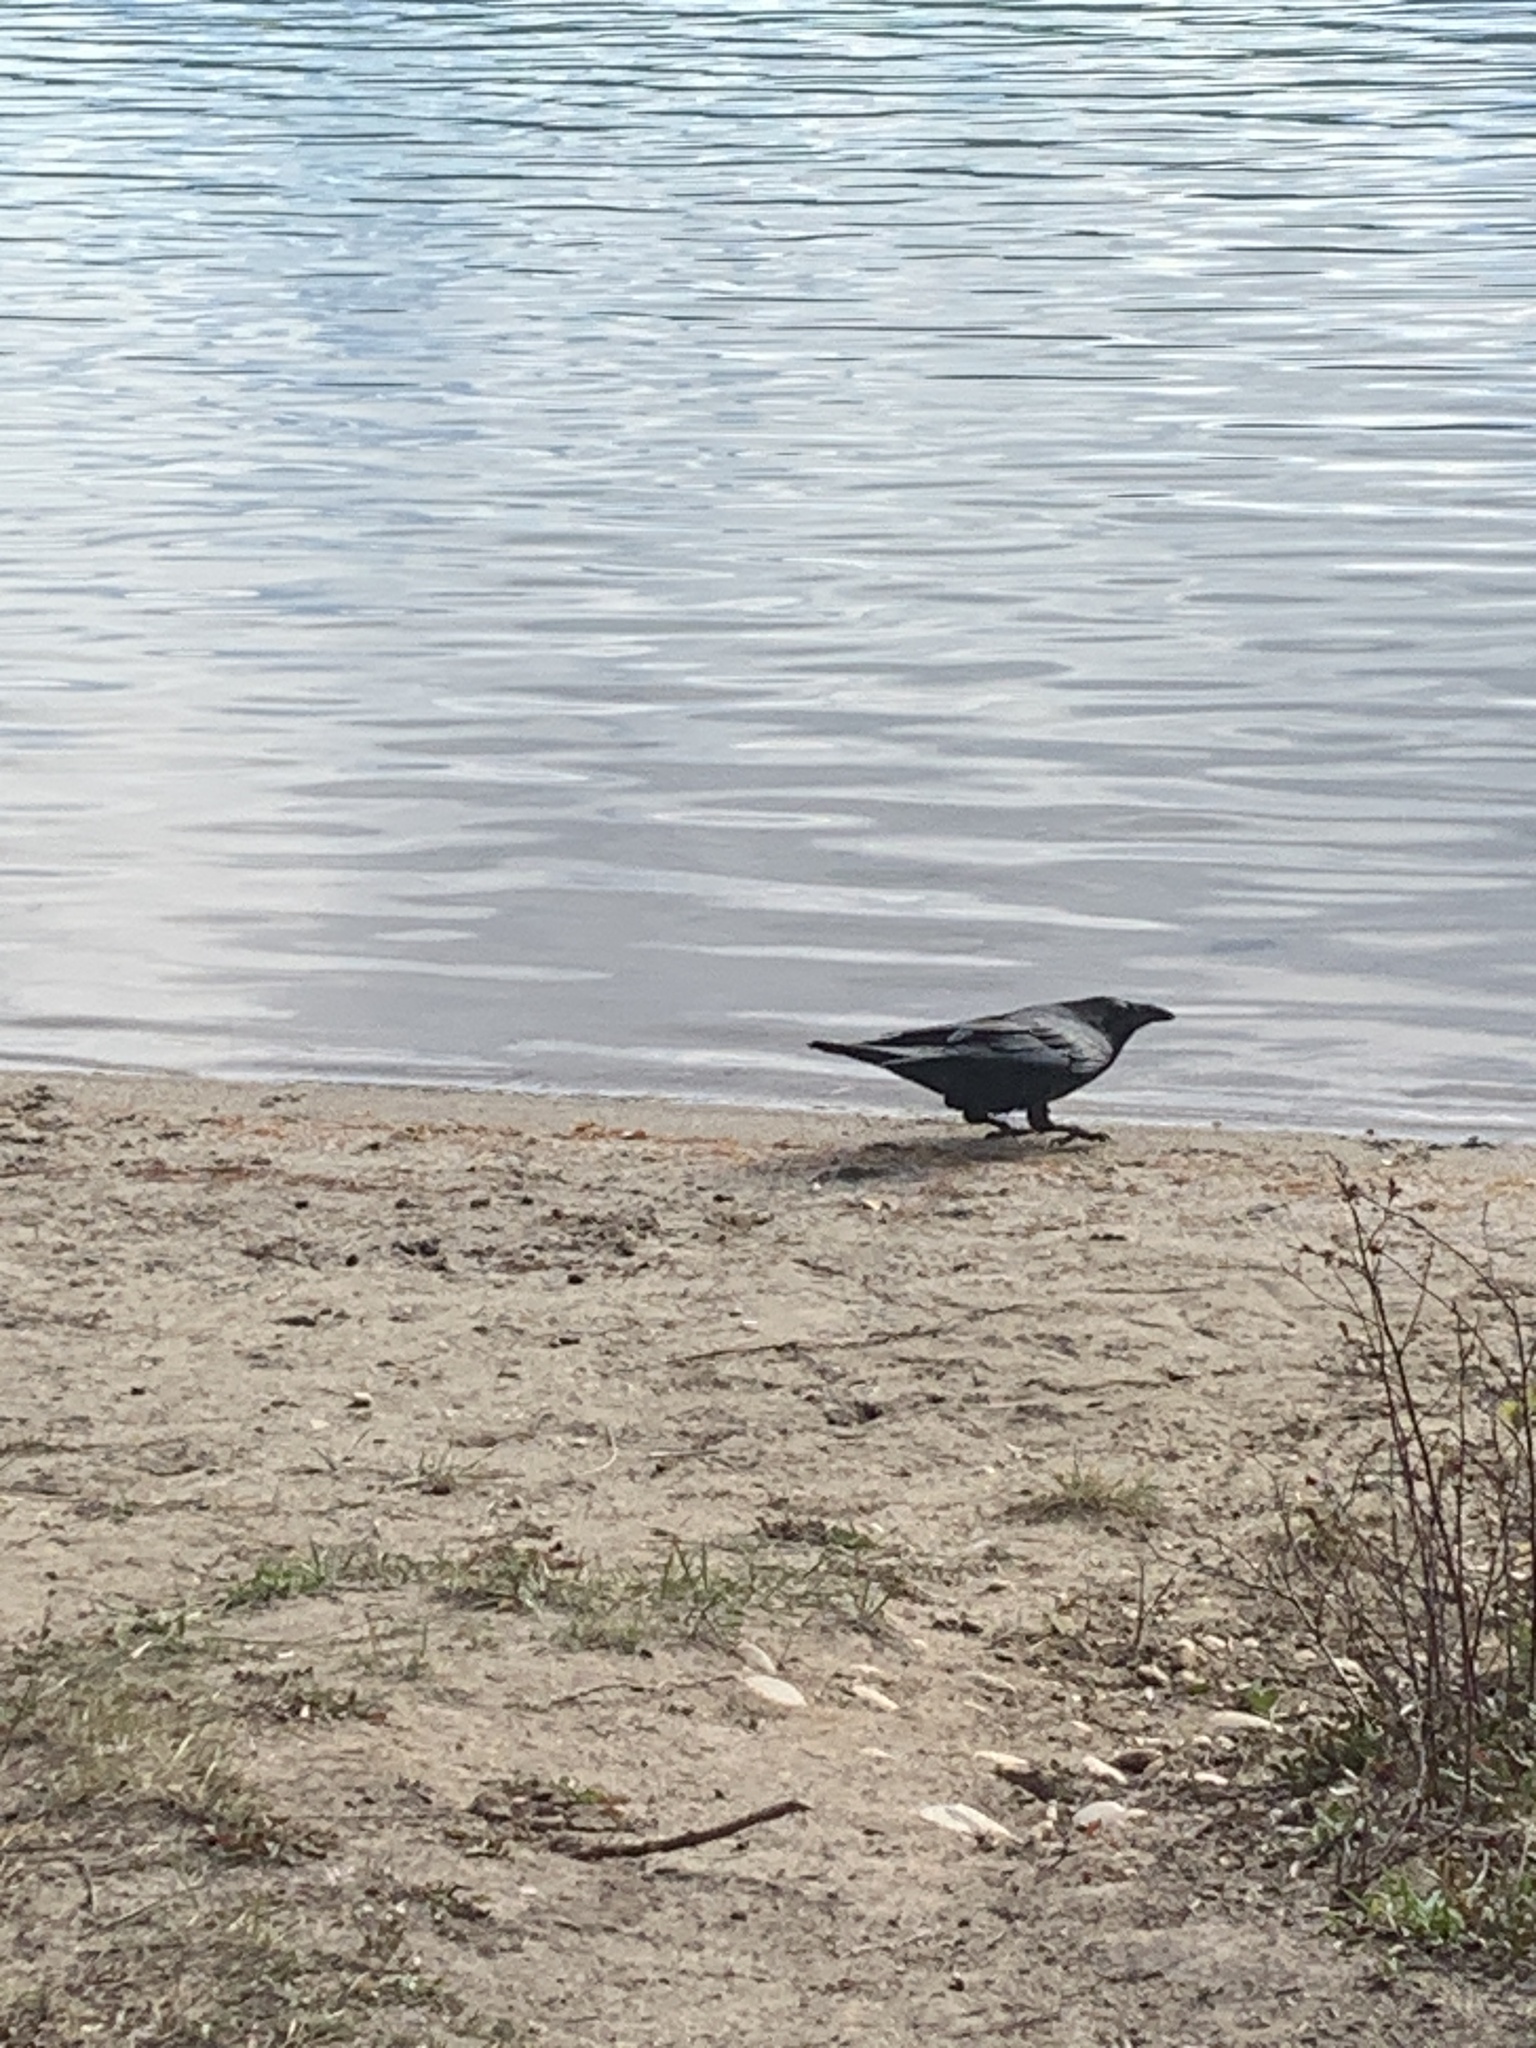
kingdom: Animalia
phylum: Chordata
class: Aves
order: Passeriformes
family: Corvidae
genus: Corvus
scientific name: Corvus corax
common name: Common raven
